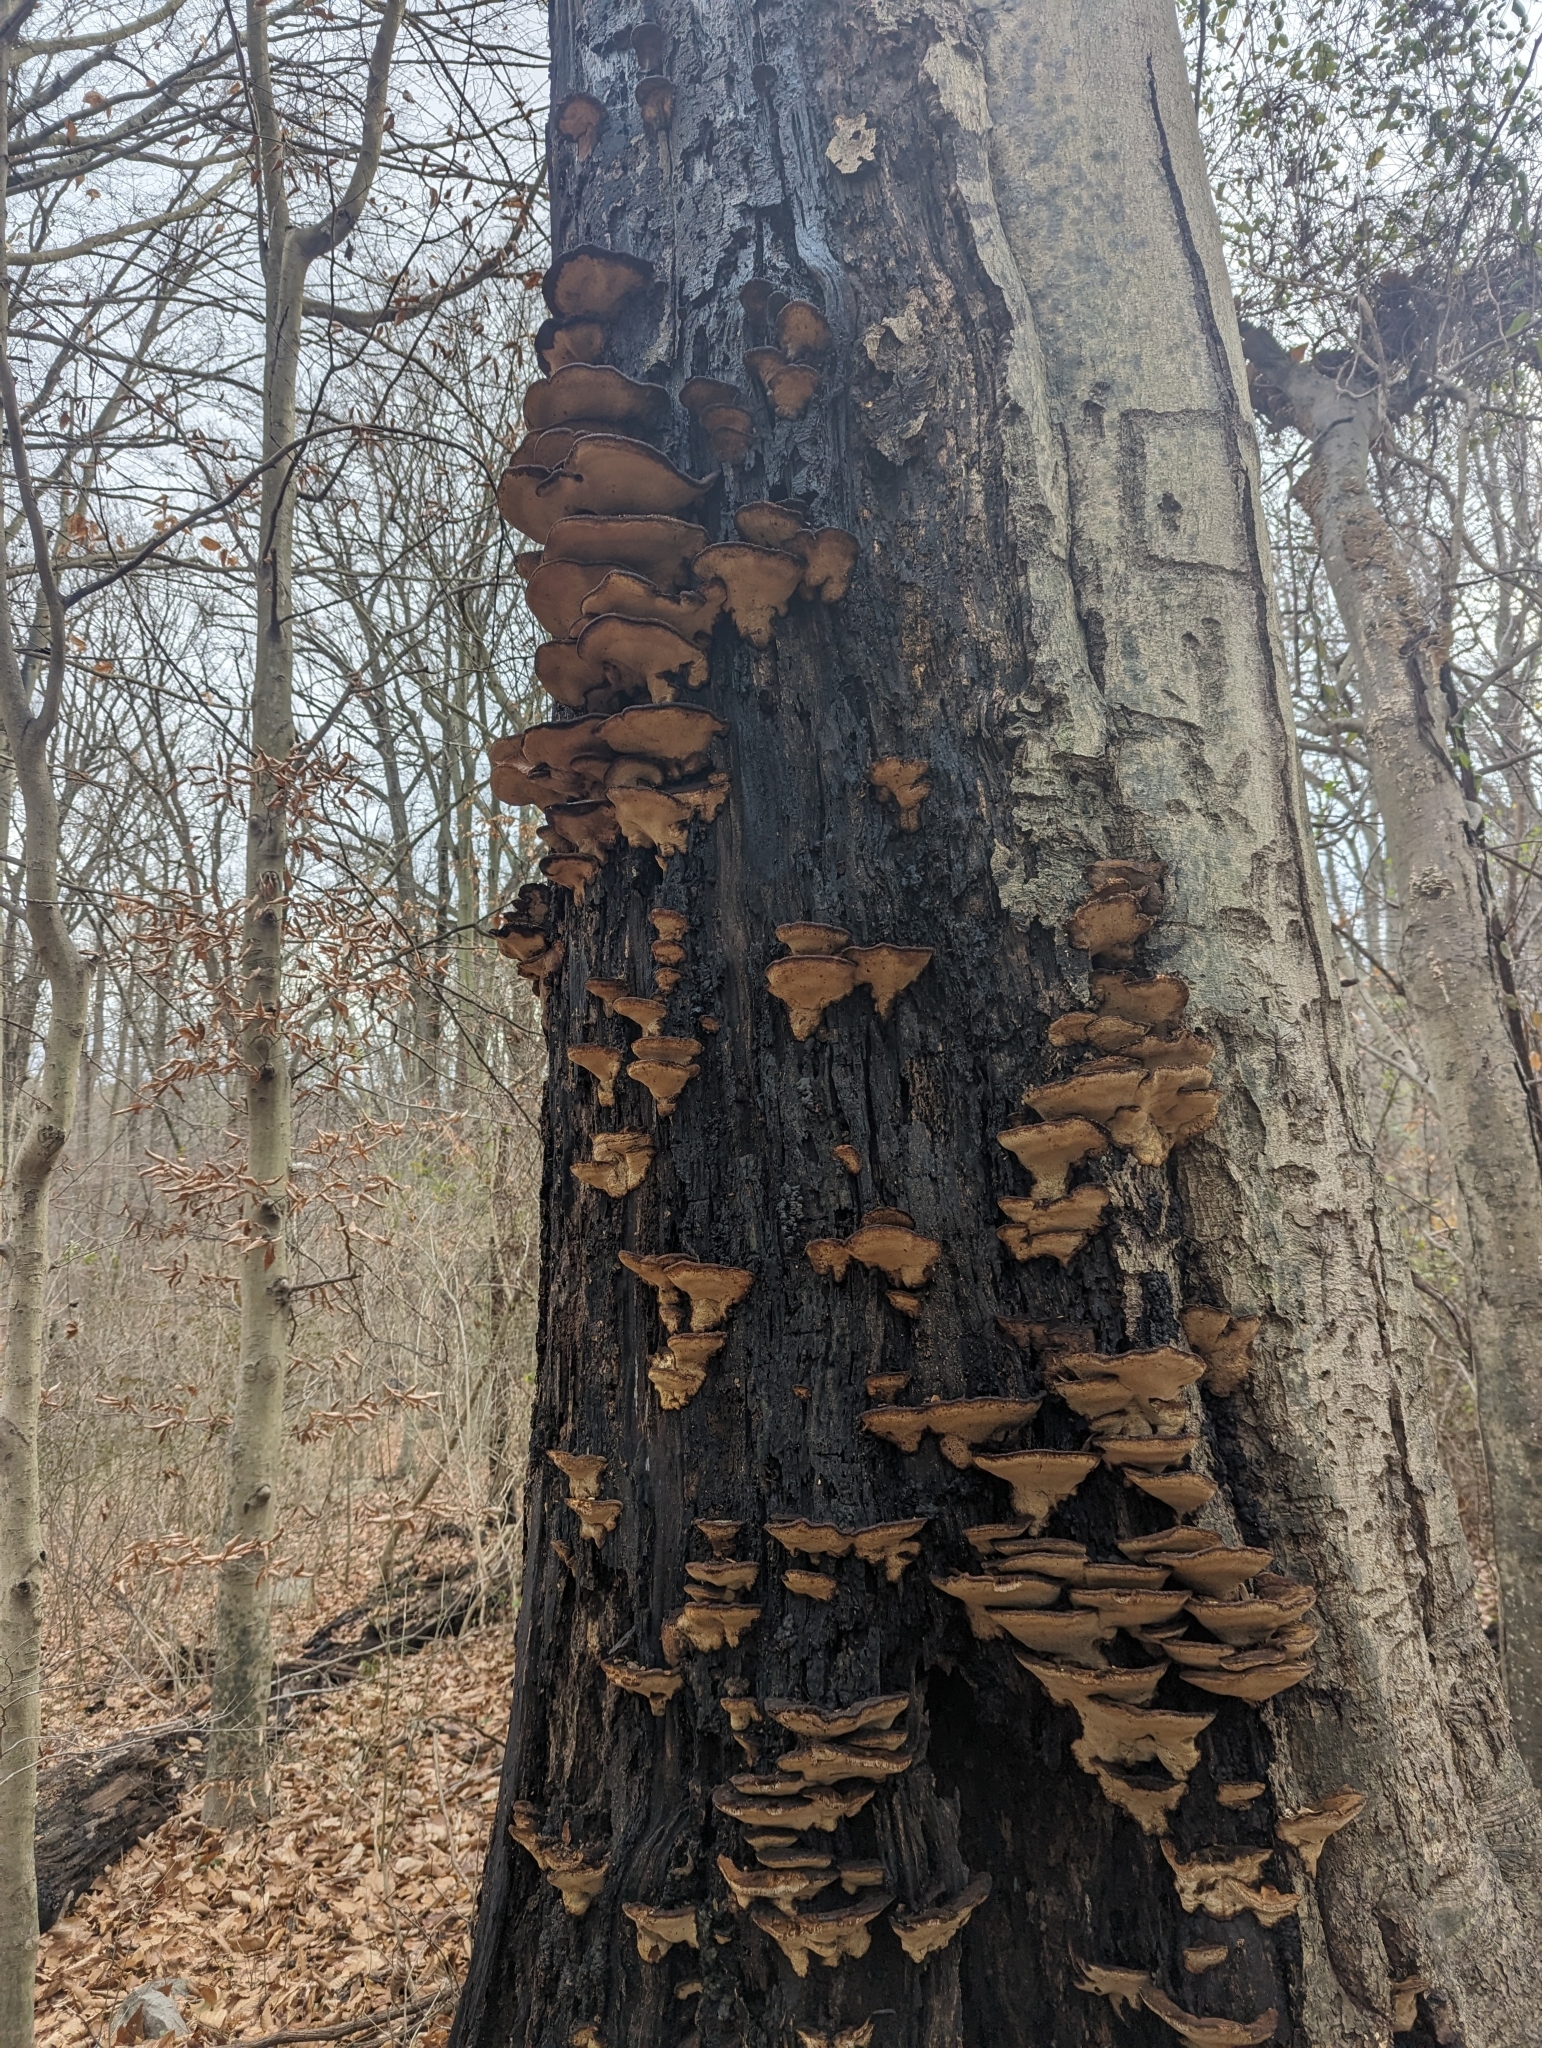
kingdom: Fungi
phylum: Basidiomycota
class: Agaricomycetes
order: Polyporales
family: Ischnodermataceae
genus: Ischnoderma
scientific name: Ischnoderma resinosum
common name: Resinous polypore
